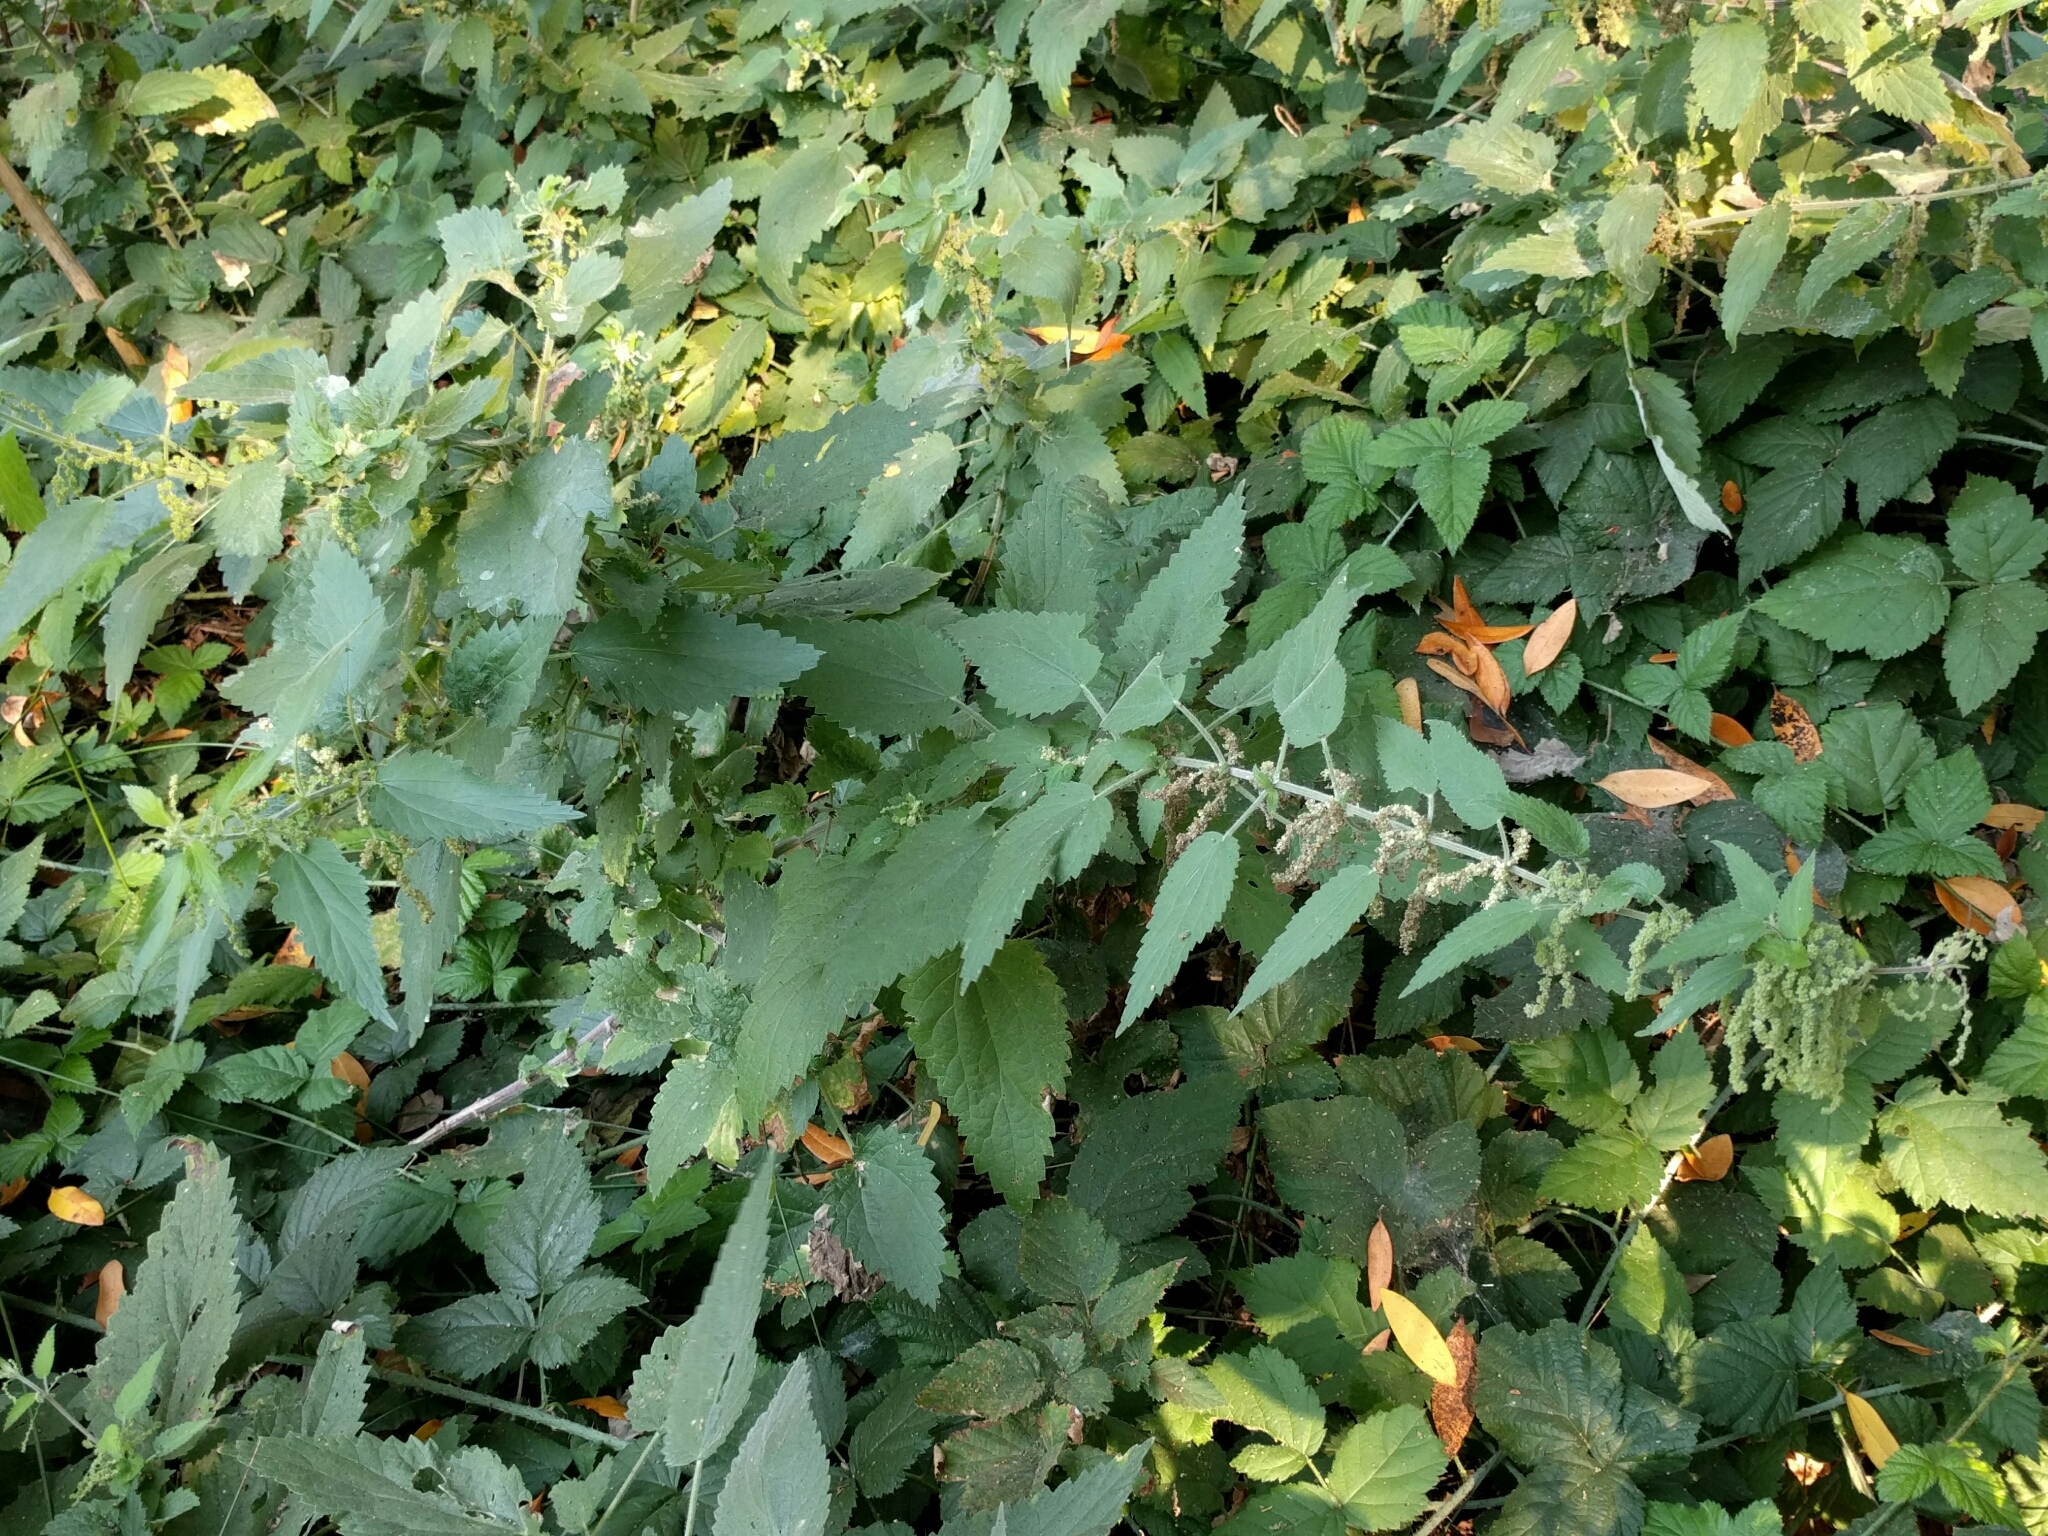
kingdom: Plantae
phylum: Tracheophyta
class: Magnoliopsida
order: Rosales
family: Urticaceae
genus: Urtica
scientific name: Urtica dioica
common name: Common nettle
